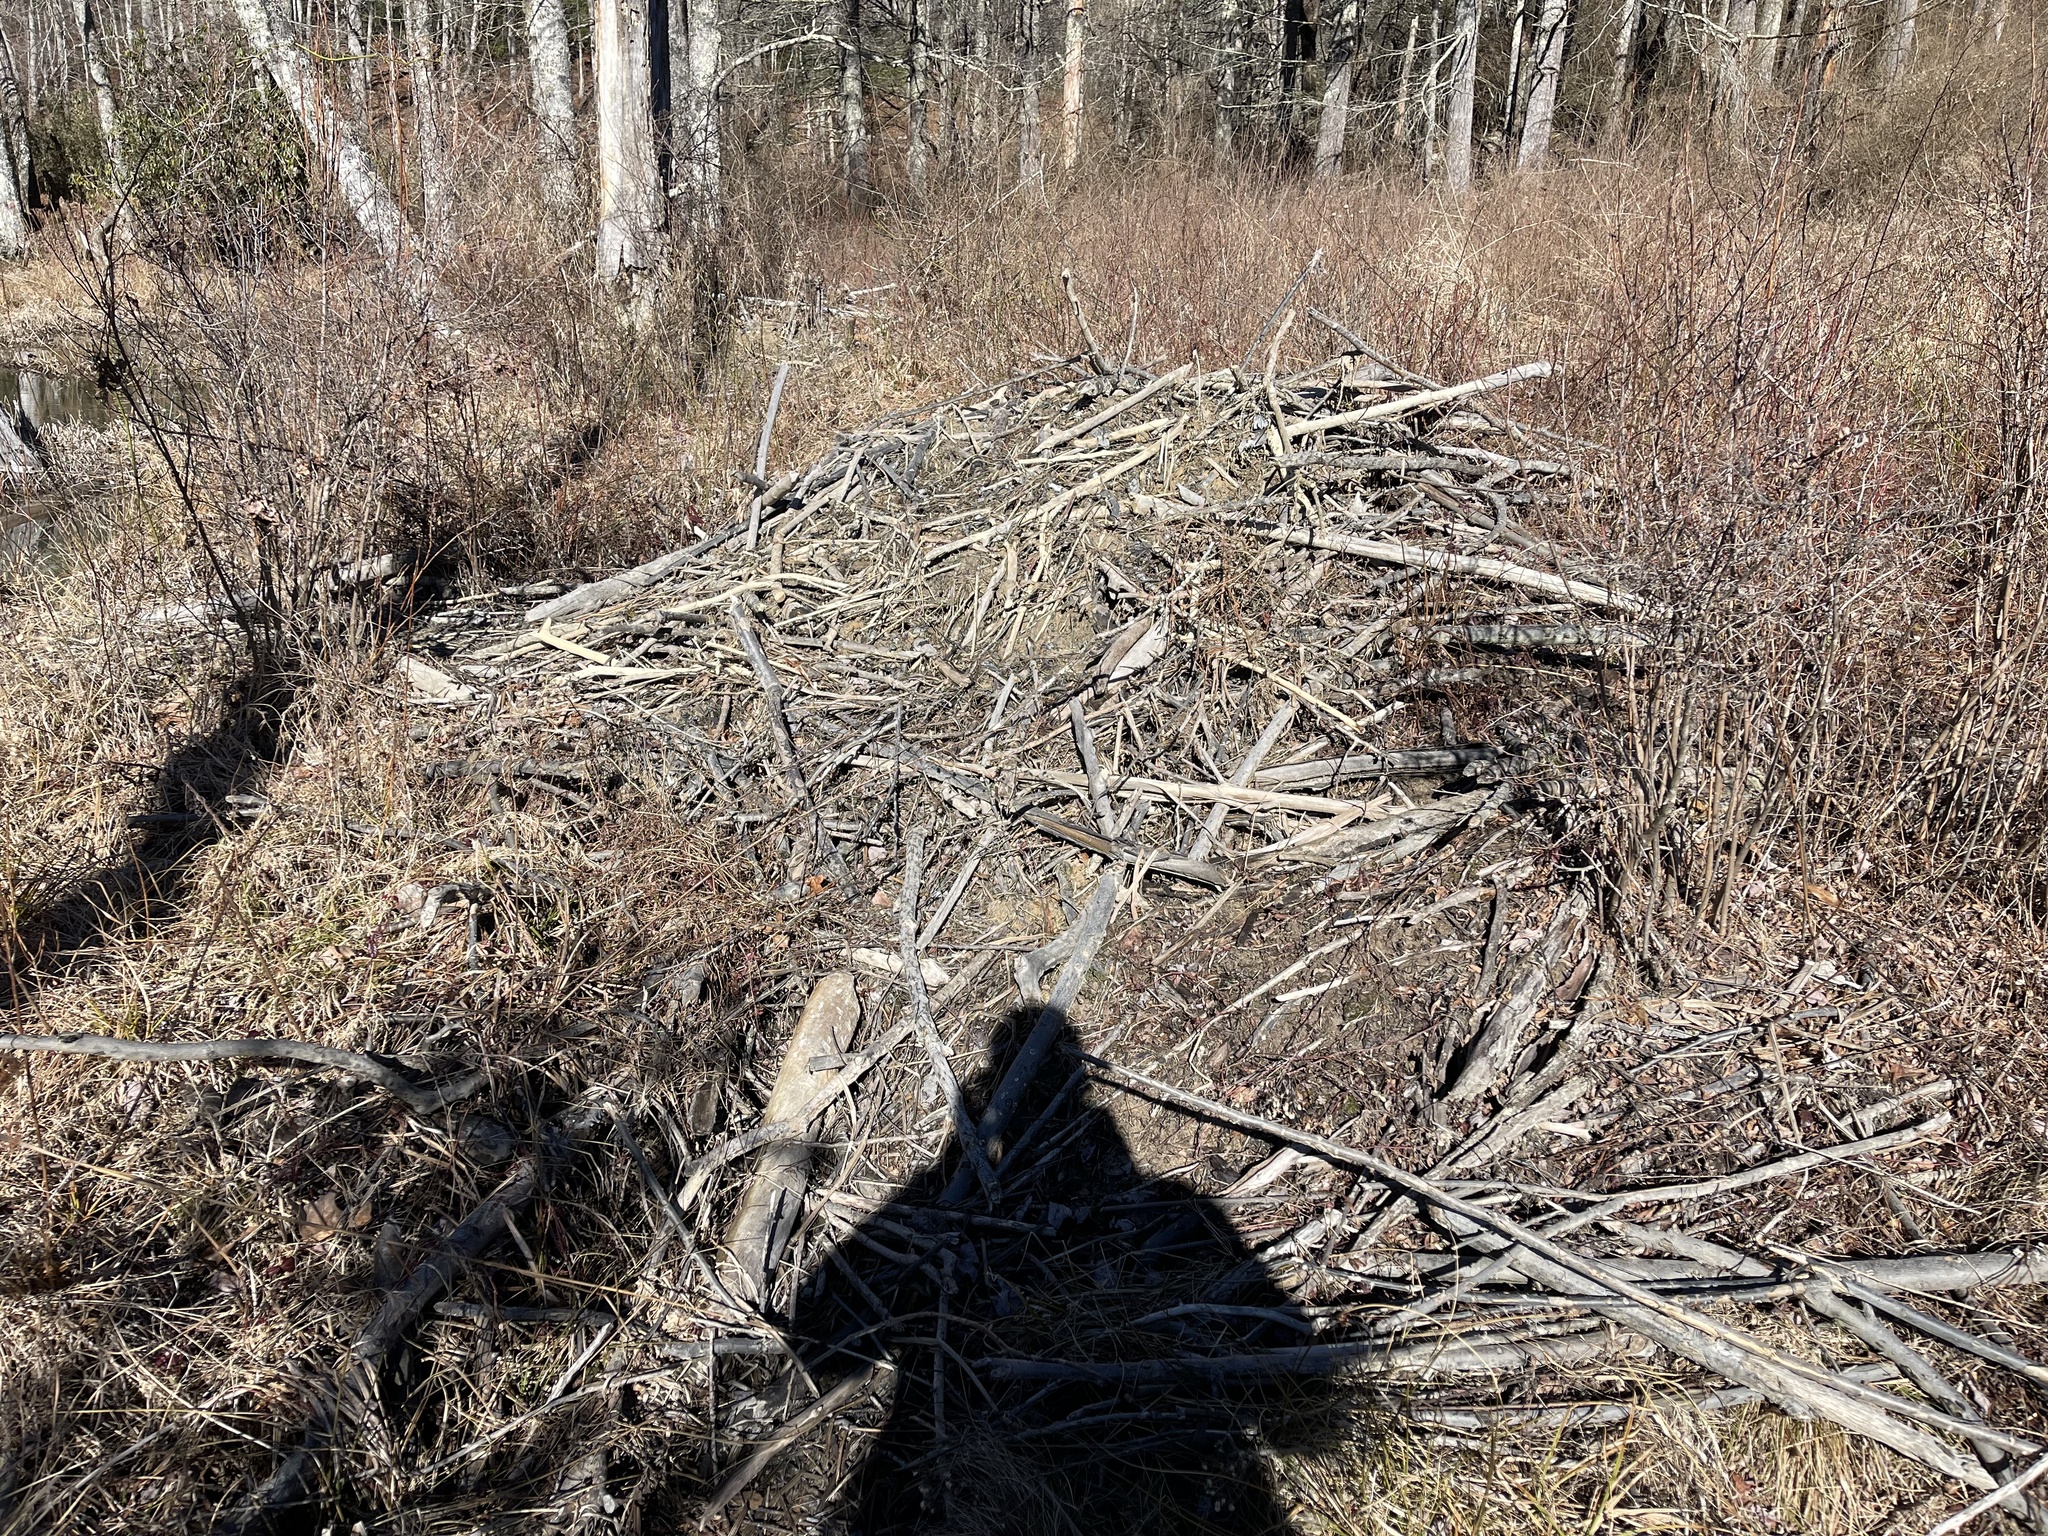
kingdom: Animalia
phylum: Chordata
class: Mammalia
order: Rodentia
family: Castoridae
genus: Castor
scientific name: Castor canadensis
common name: American beaver
